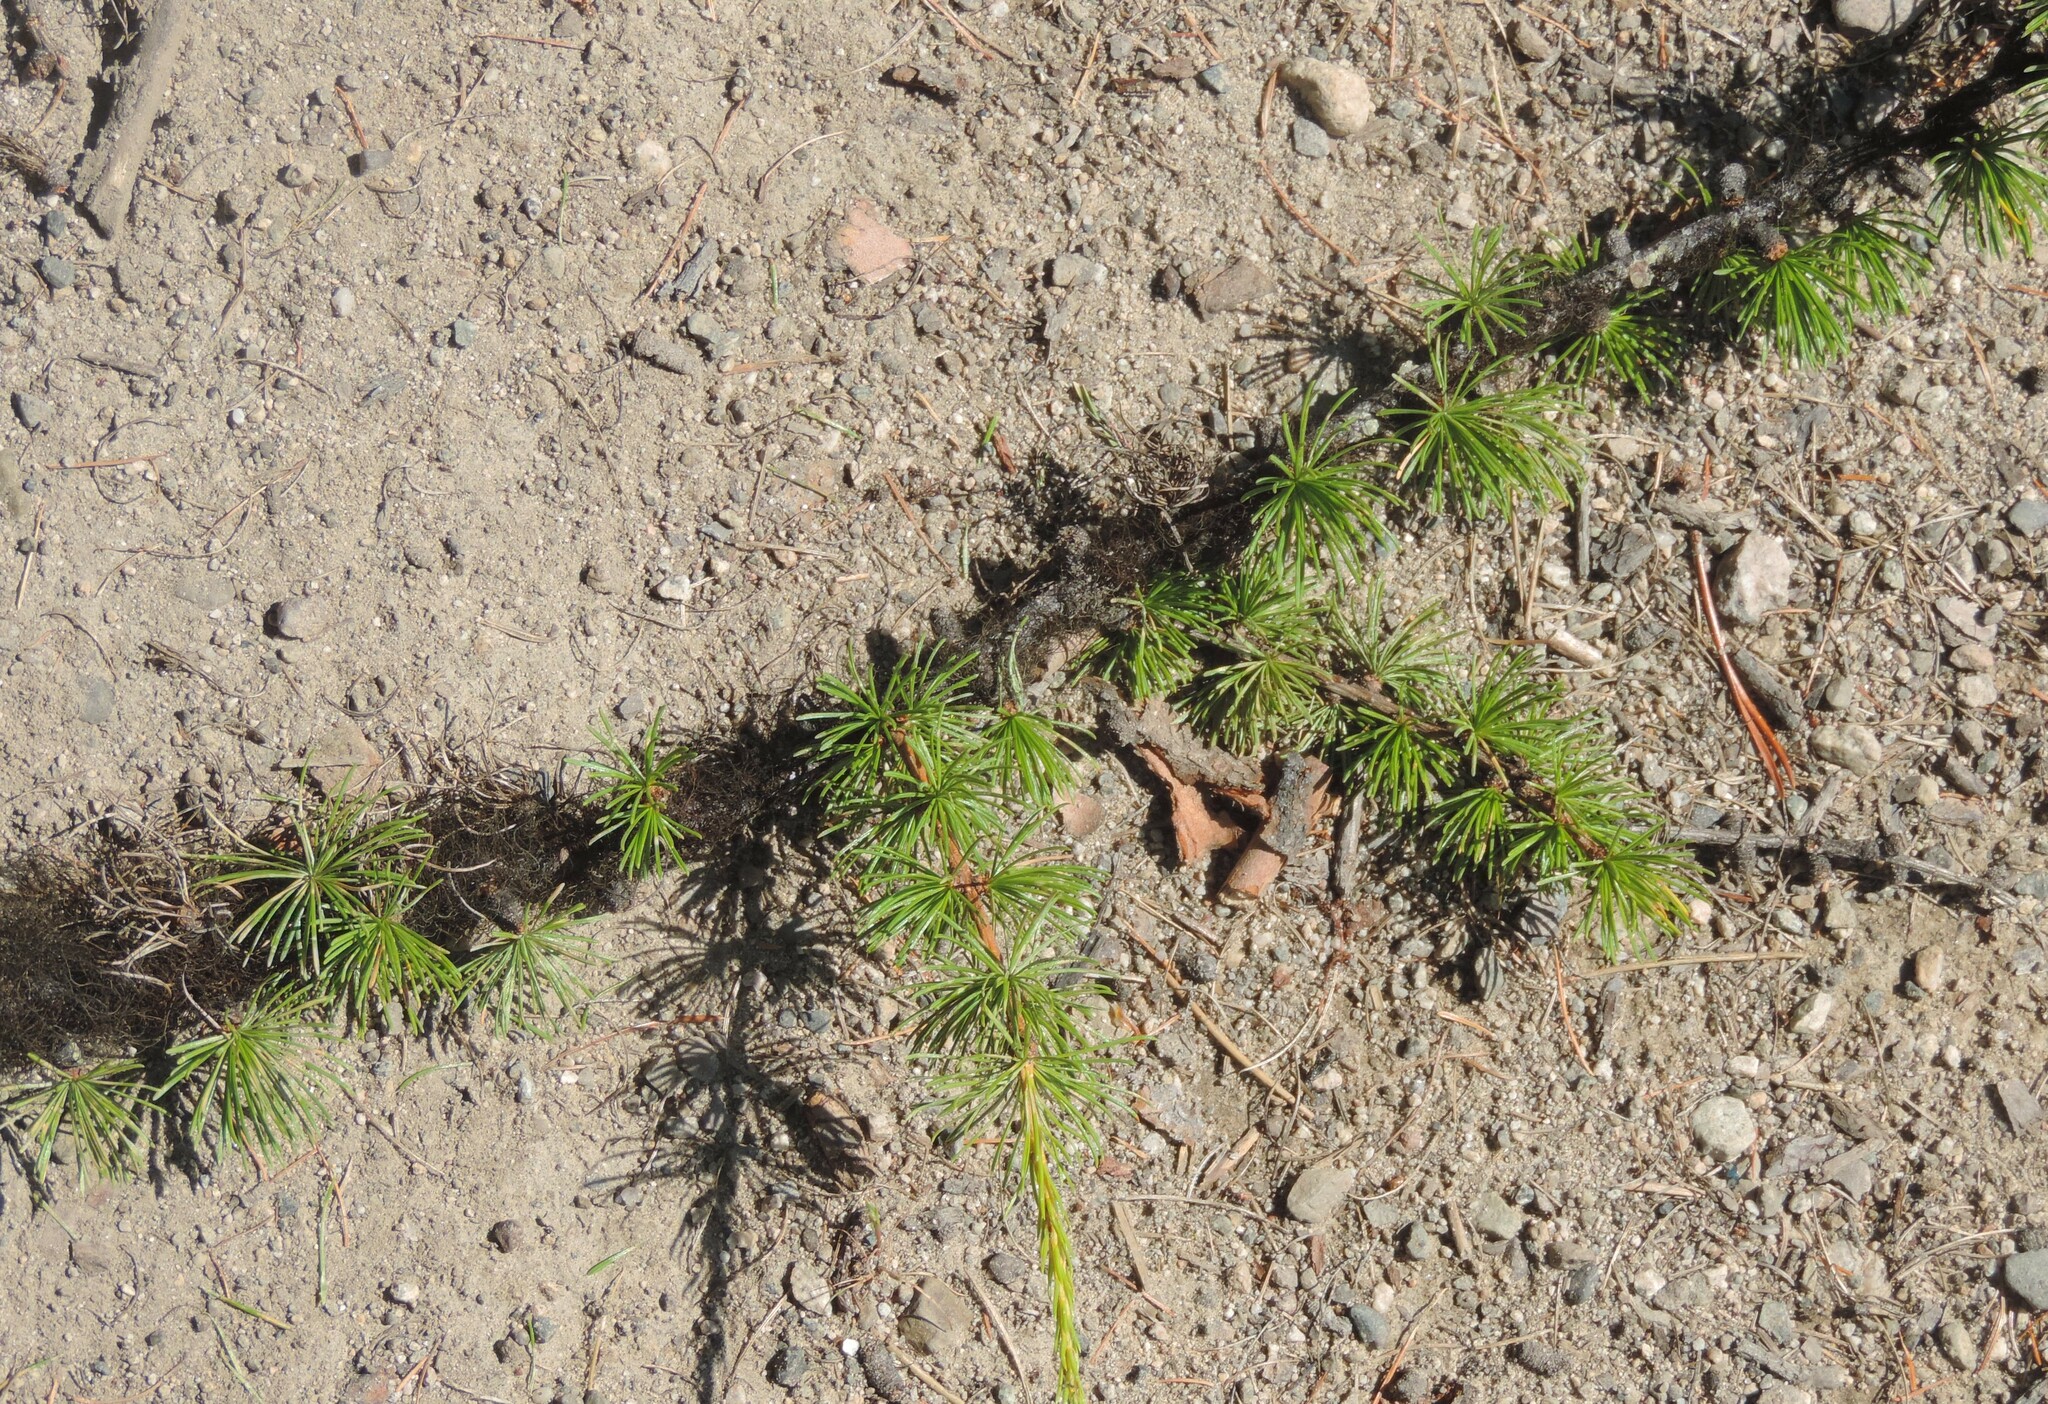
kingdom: Plantae
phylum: Tracheophyta
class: Pinopsida
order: Pinales
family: Pinaceae
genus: Larix
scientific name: Larix occidentalis
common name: Western larch
